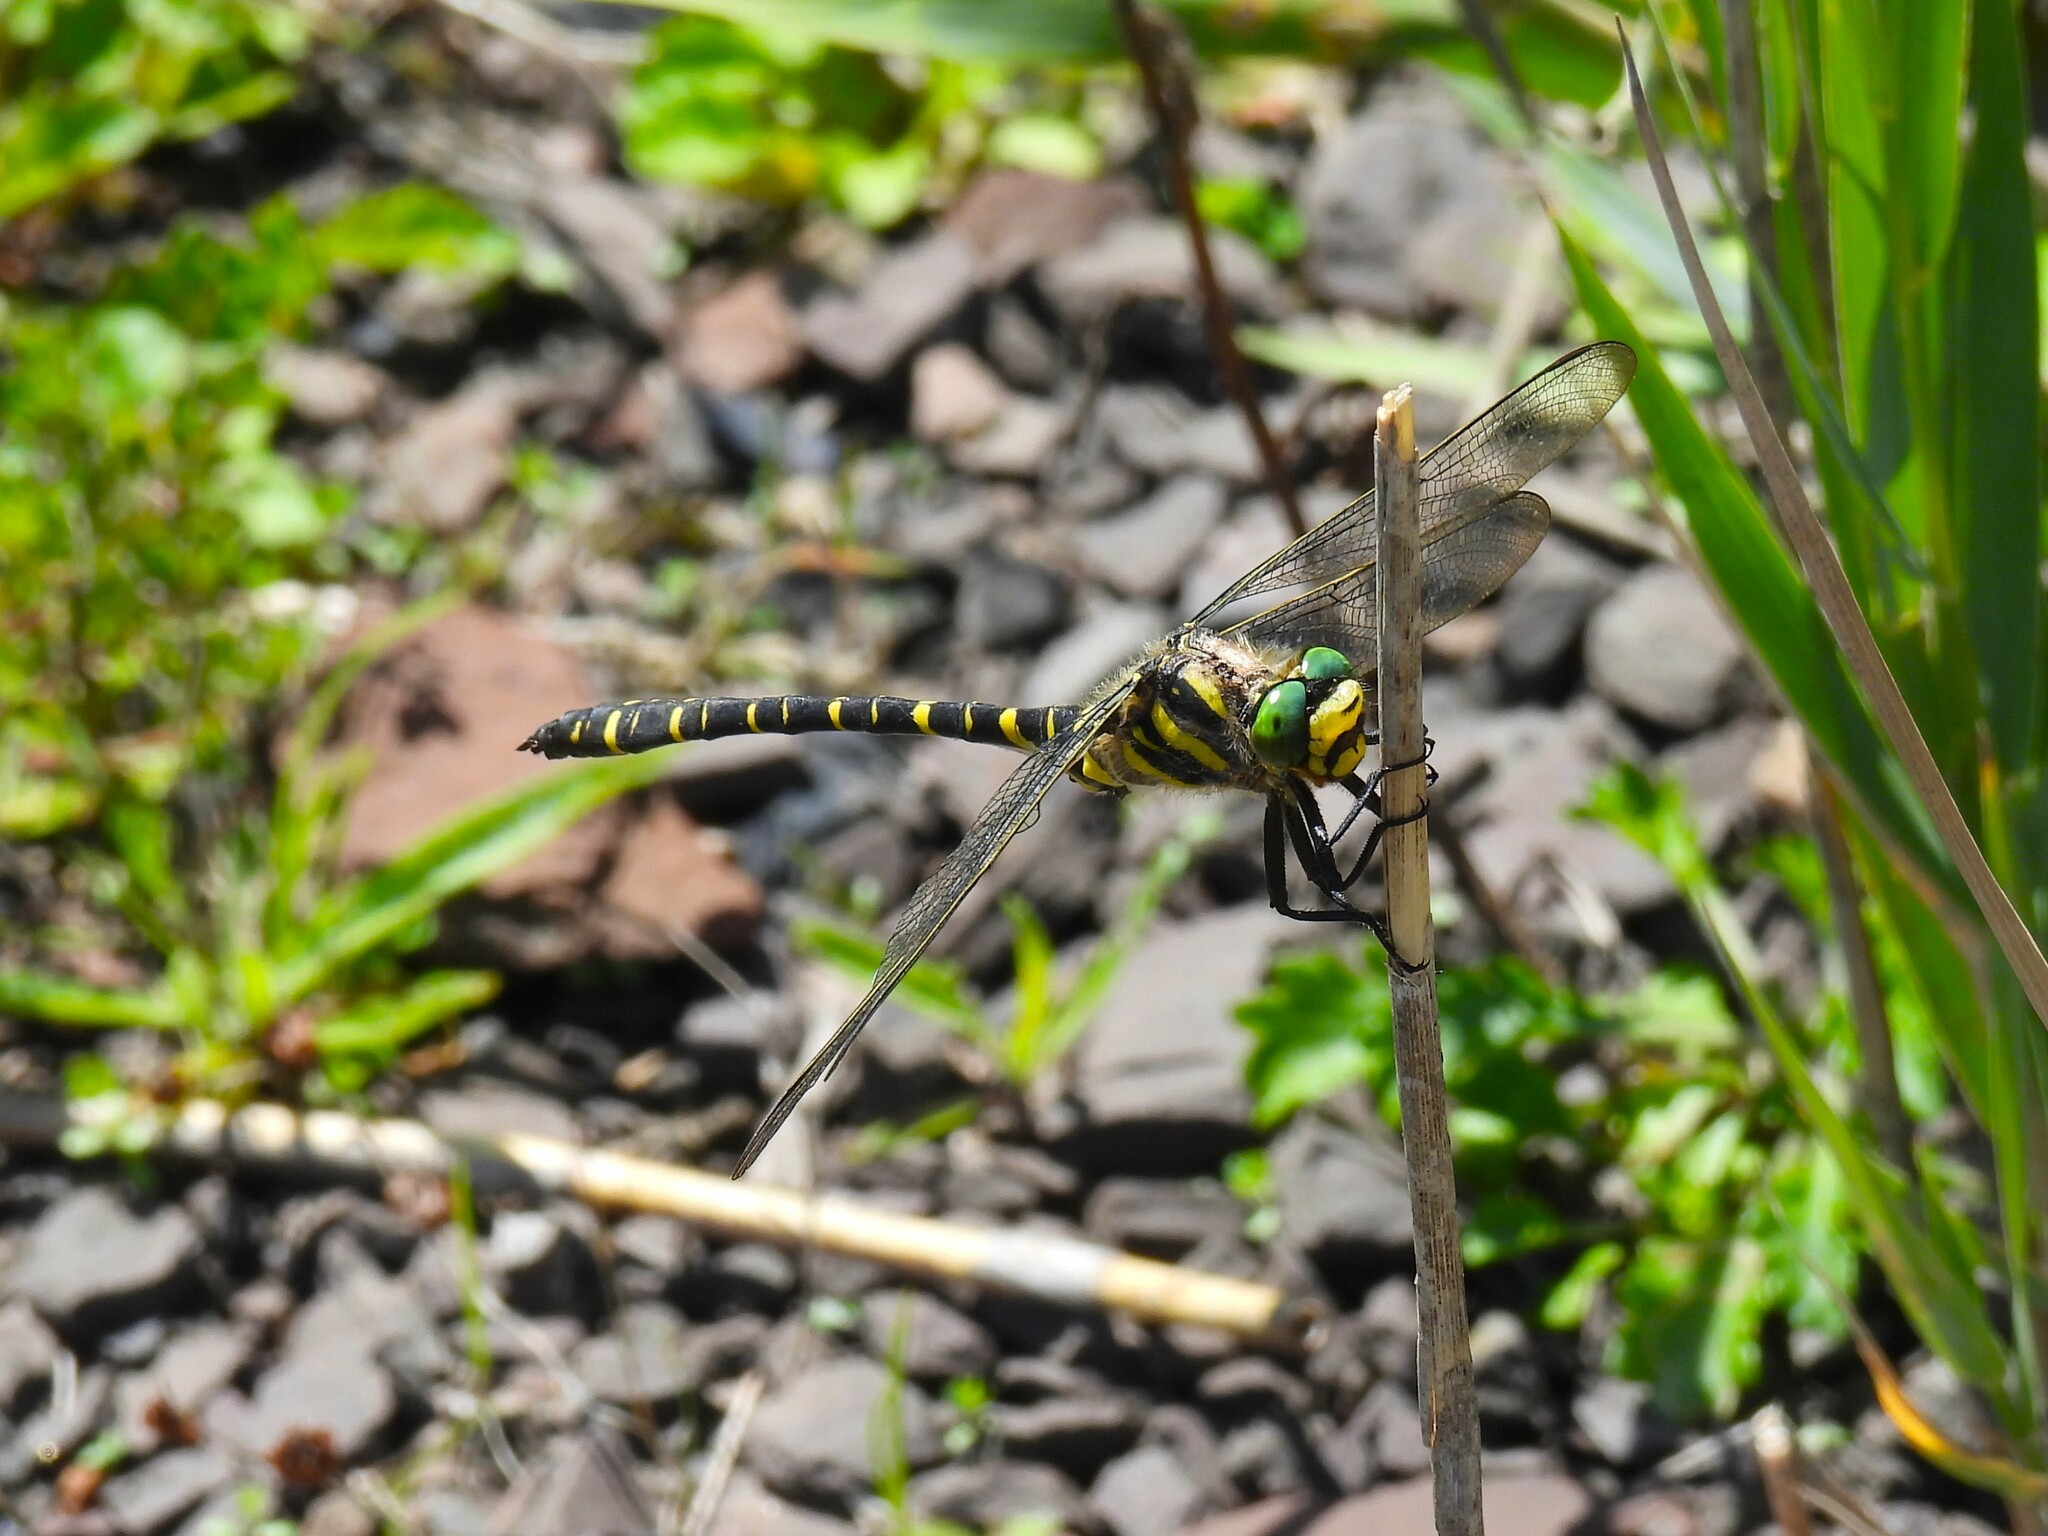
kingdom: Animalia
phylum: Arthropoda
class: Insecta
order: Odonata
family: Cordulegastridae
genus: Cordulegaster
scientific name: Cordulegaster boltonii
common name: Golden-ringed dragonfly
